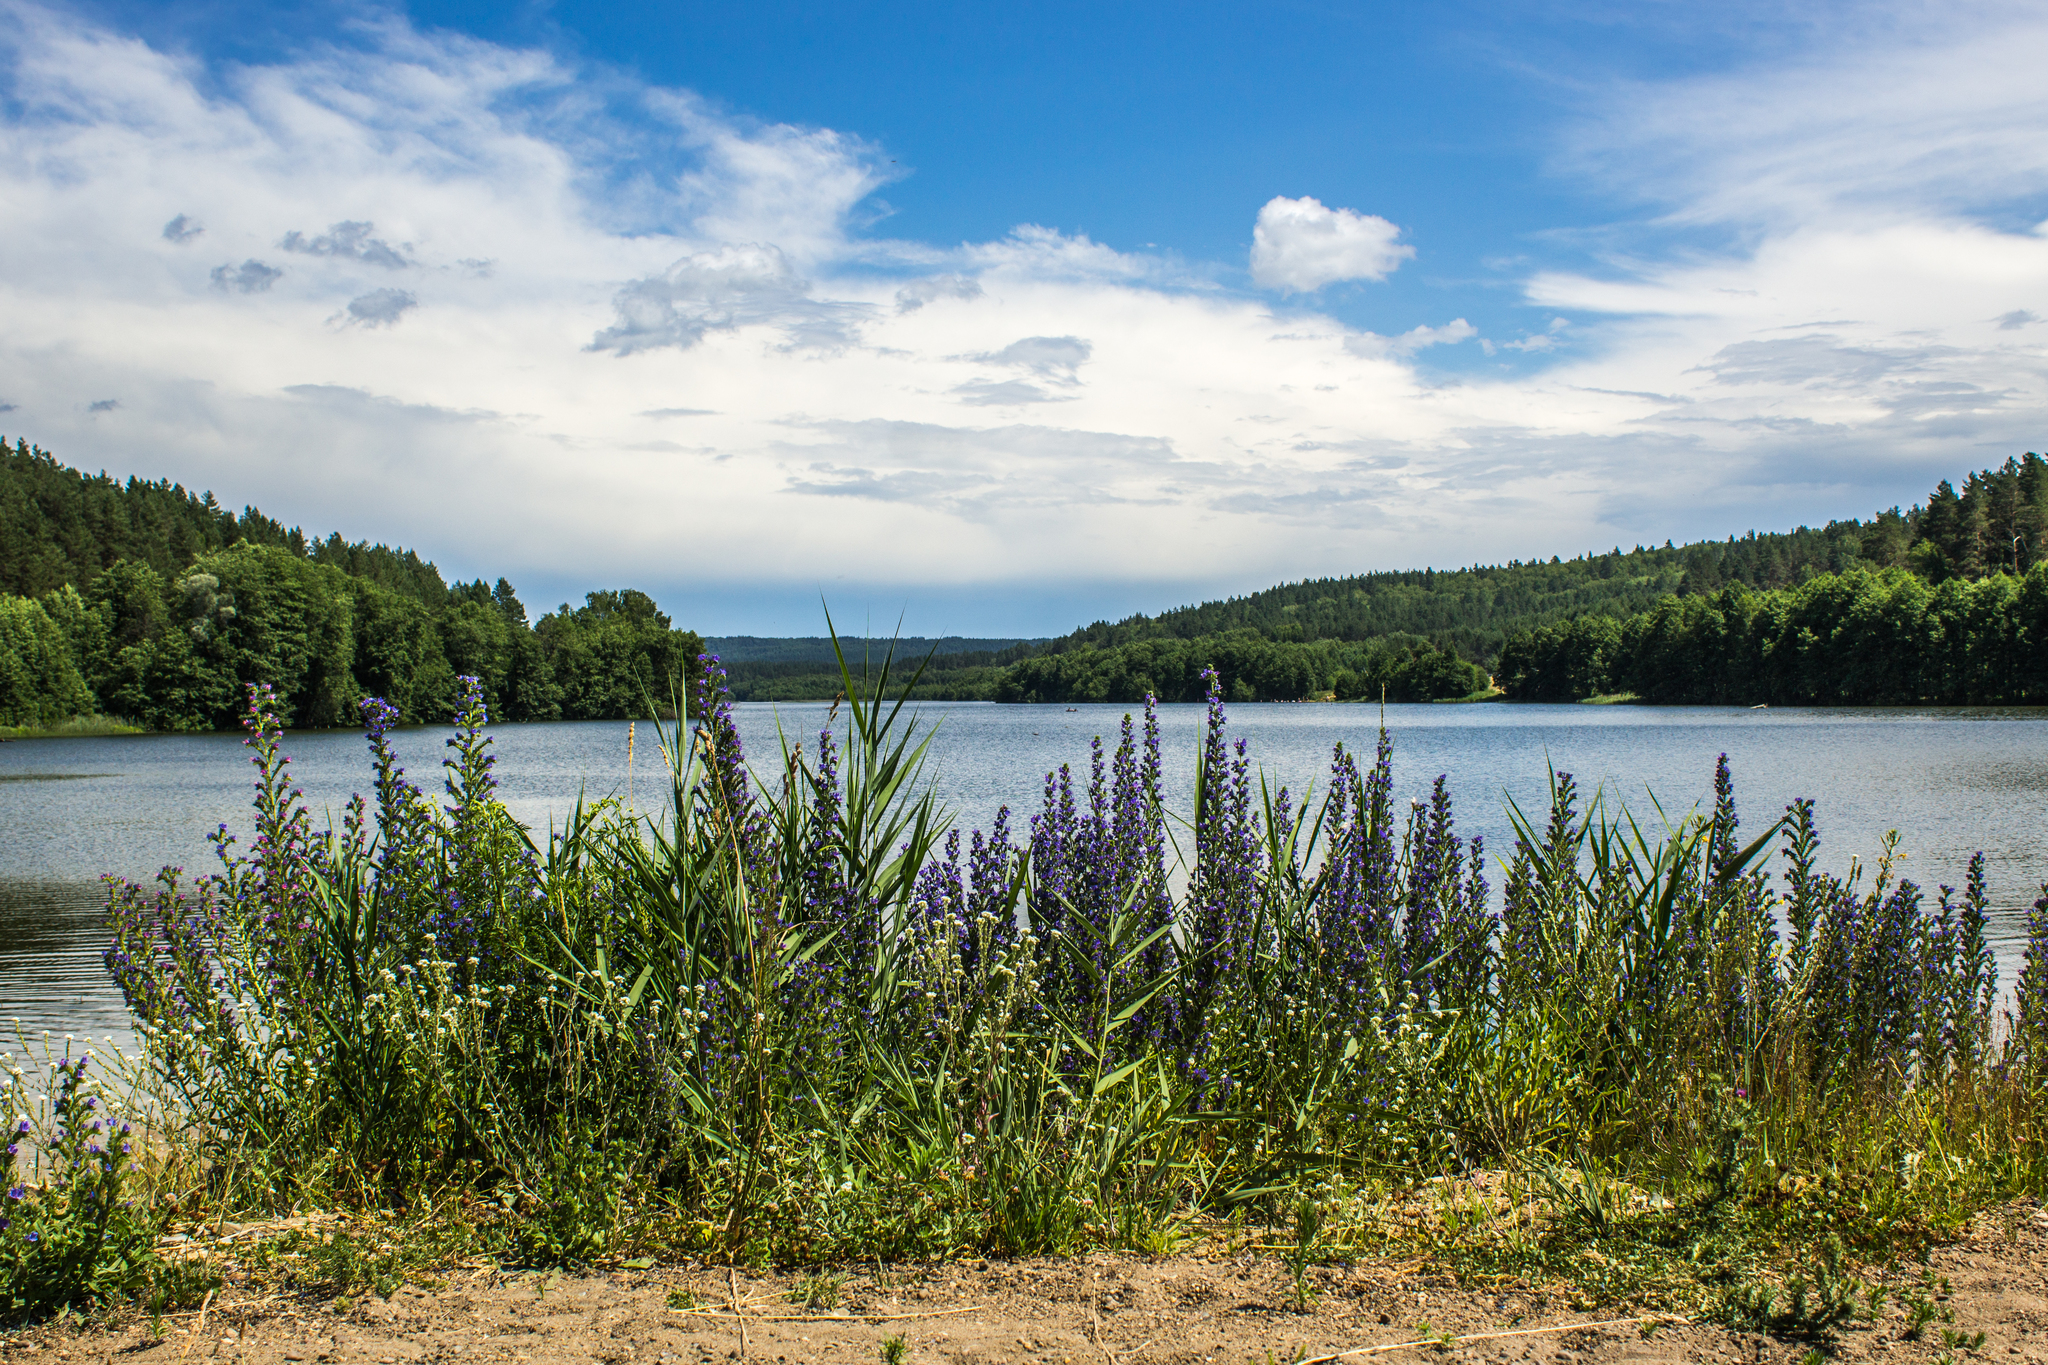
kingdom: Plantae
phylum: Tracheophyta
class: Magnoliopsida
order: Boraginales
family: Boraginaceae
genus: Echium
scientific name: Echium vulgare
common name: Common viper's bugloss
